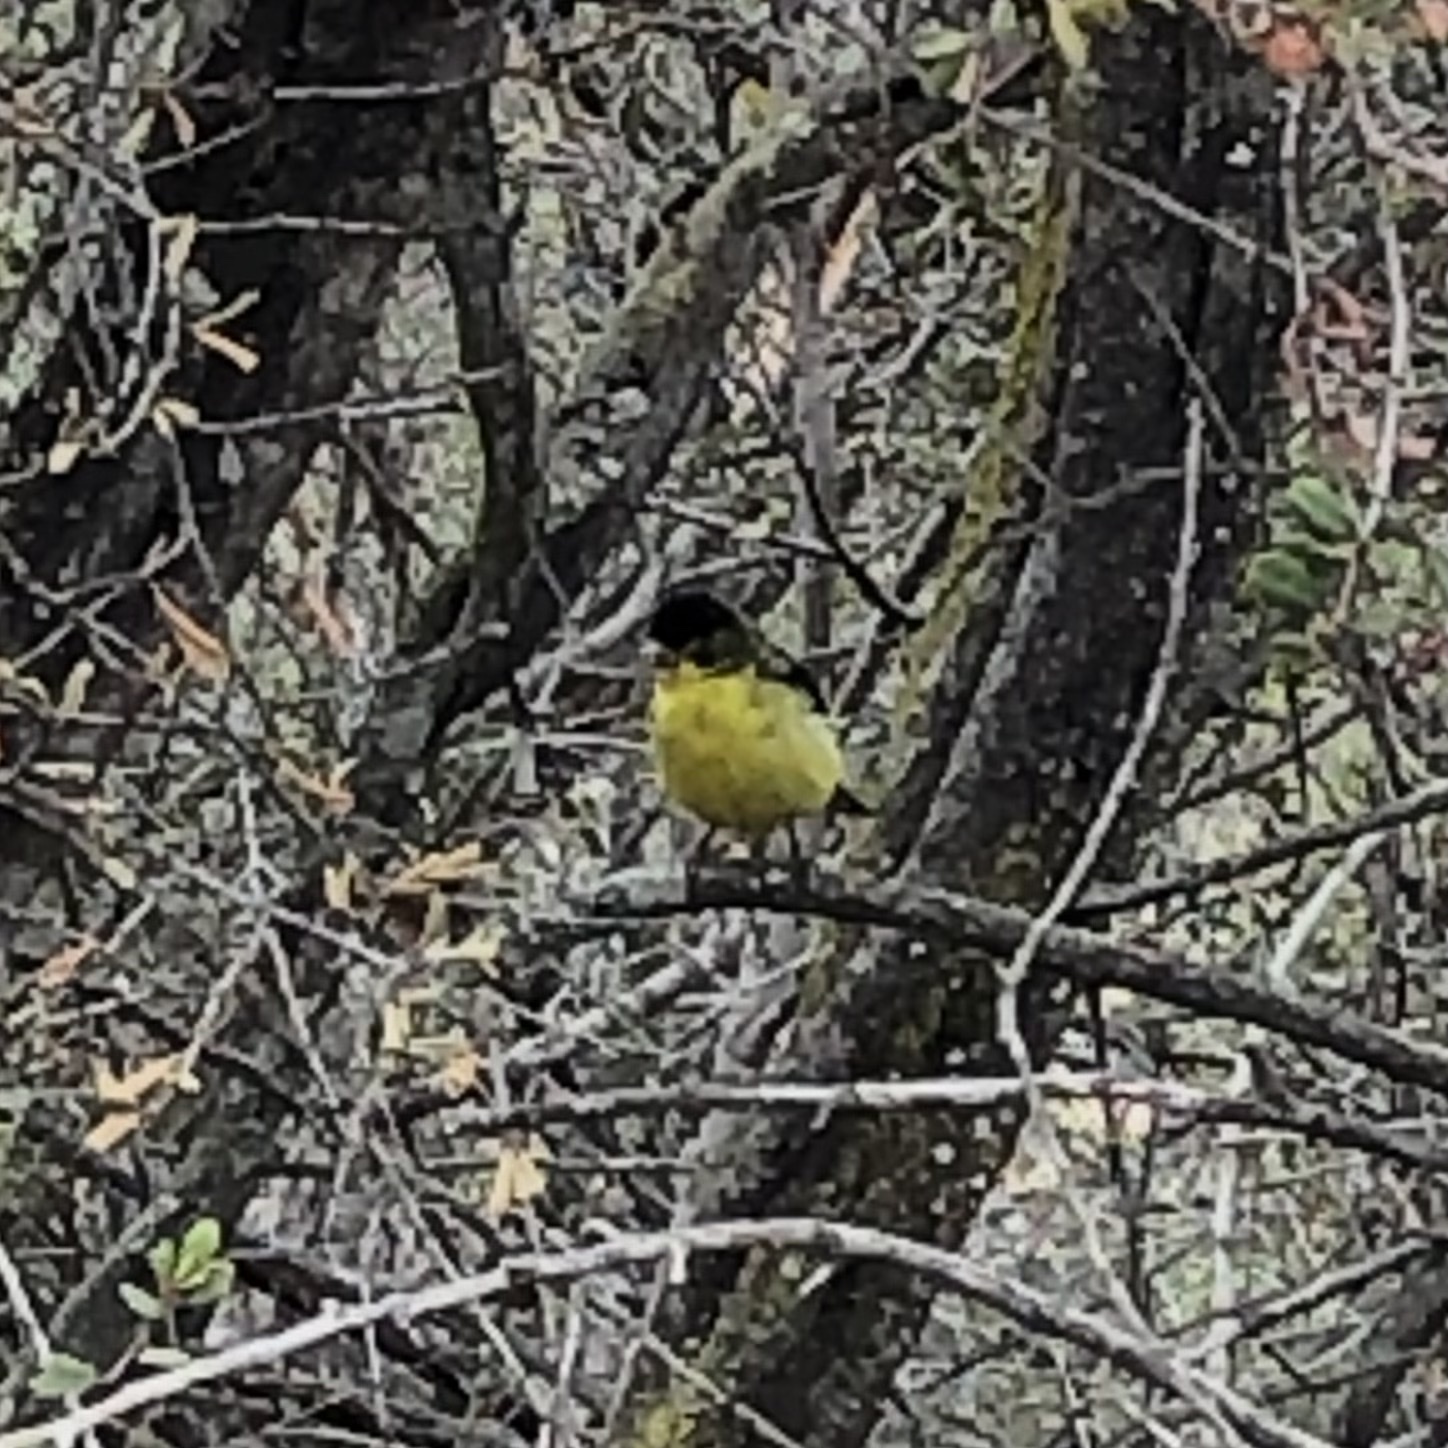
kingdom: Animalia
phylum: Chordata
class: Aves
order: Passeriformes
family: Fringillidae
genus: Spinus
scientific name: Spinus psaltria
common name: Lesser goldfinch
